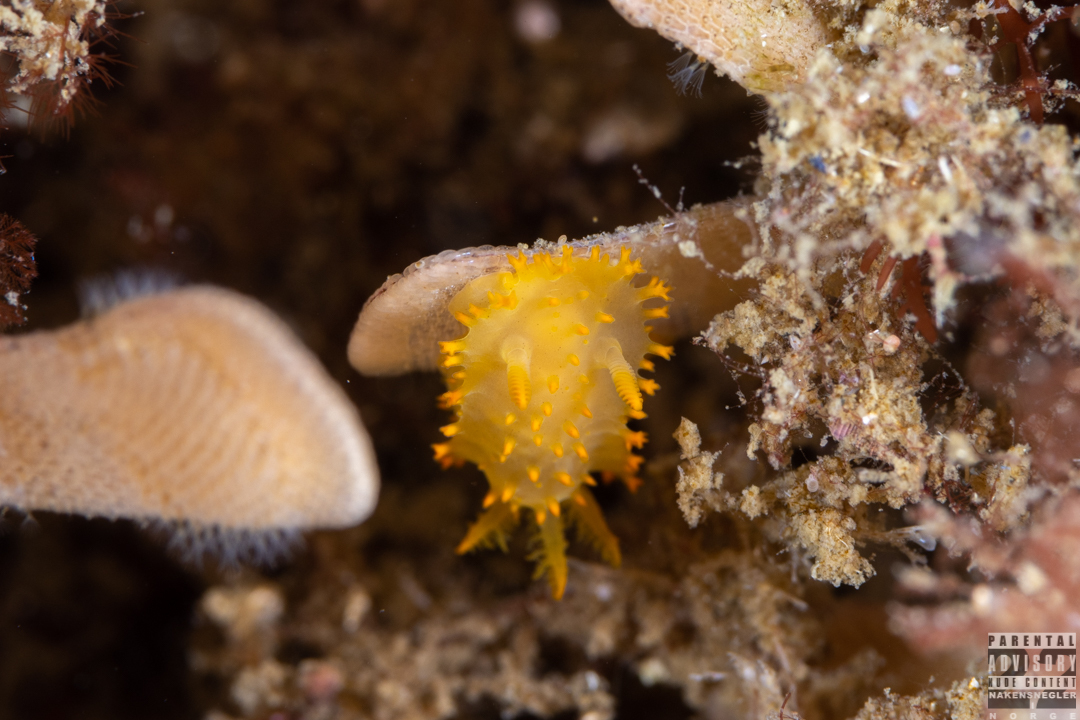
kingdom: Animalia
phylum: Mollusca
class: Gastropoda
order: Nudibranchia
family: Polyceridae
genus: Crimora
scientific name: Crimora papillata
